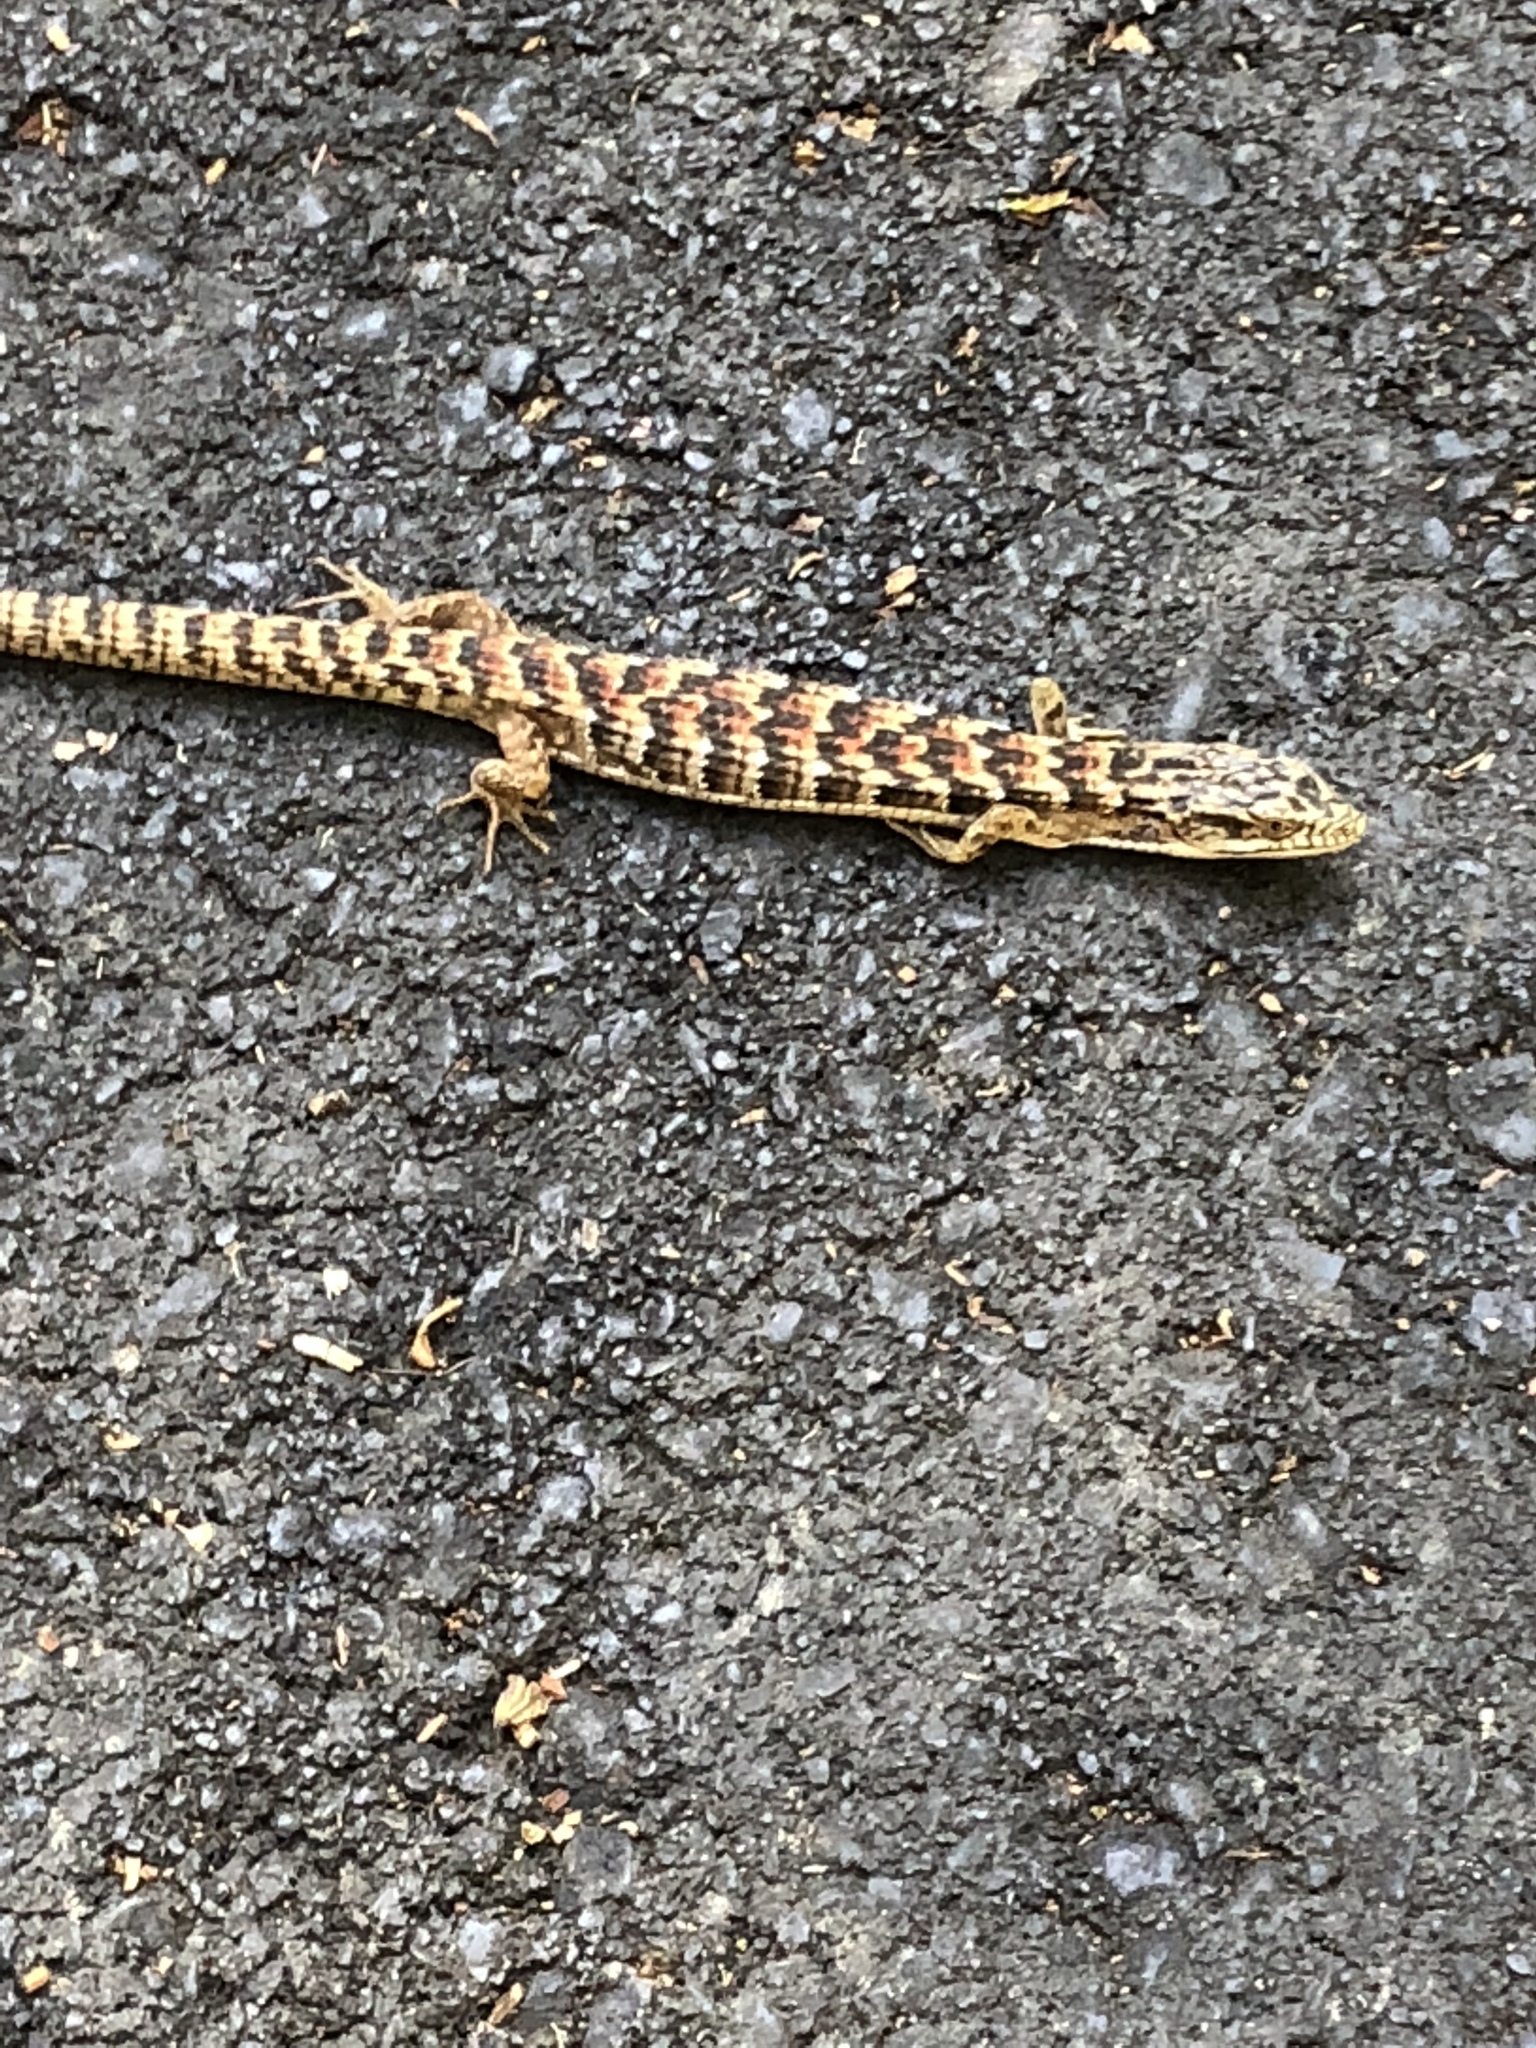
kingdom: Animalia
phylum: Chordata
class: Squamata
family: Anguidae
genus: Elgaria
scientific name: Elgaria multicarinata
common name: Southern alligator lizard
